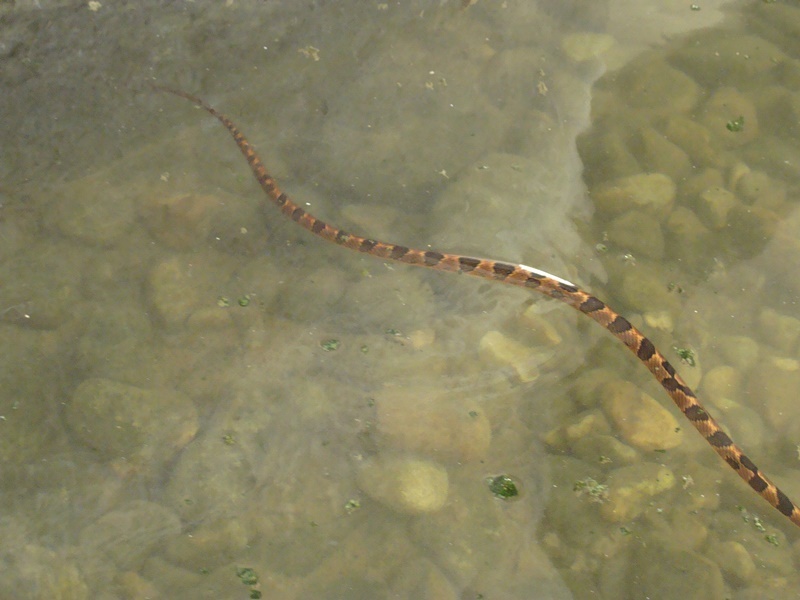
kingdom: Animalia
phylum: Chordata
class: Squamata
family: Colubridae
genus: Leptodeira
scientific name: Leptodeira annulata
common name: Banded cat-eyed snake
